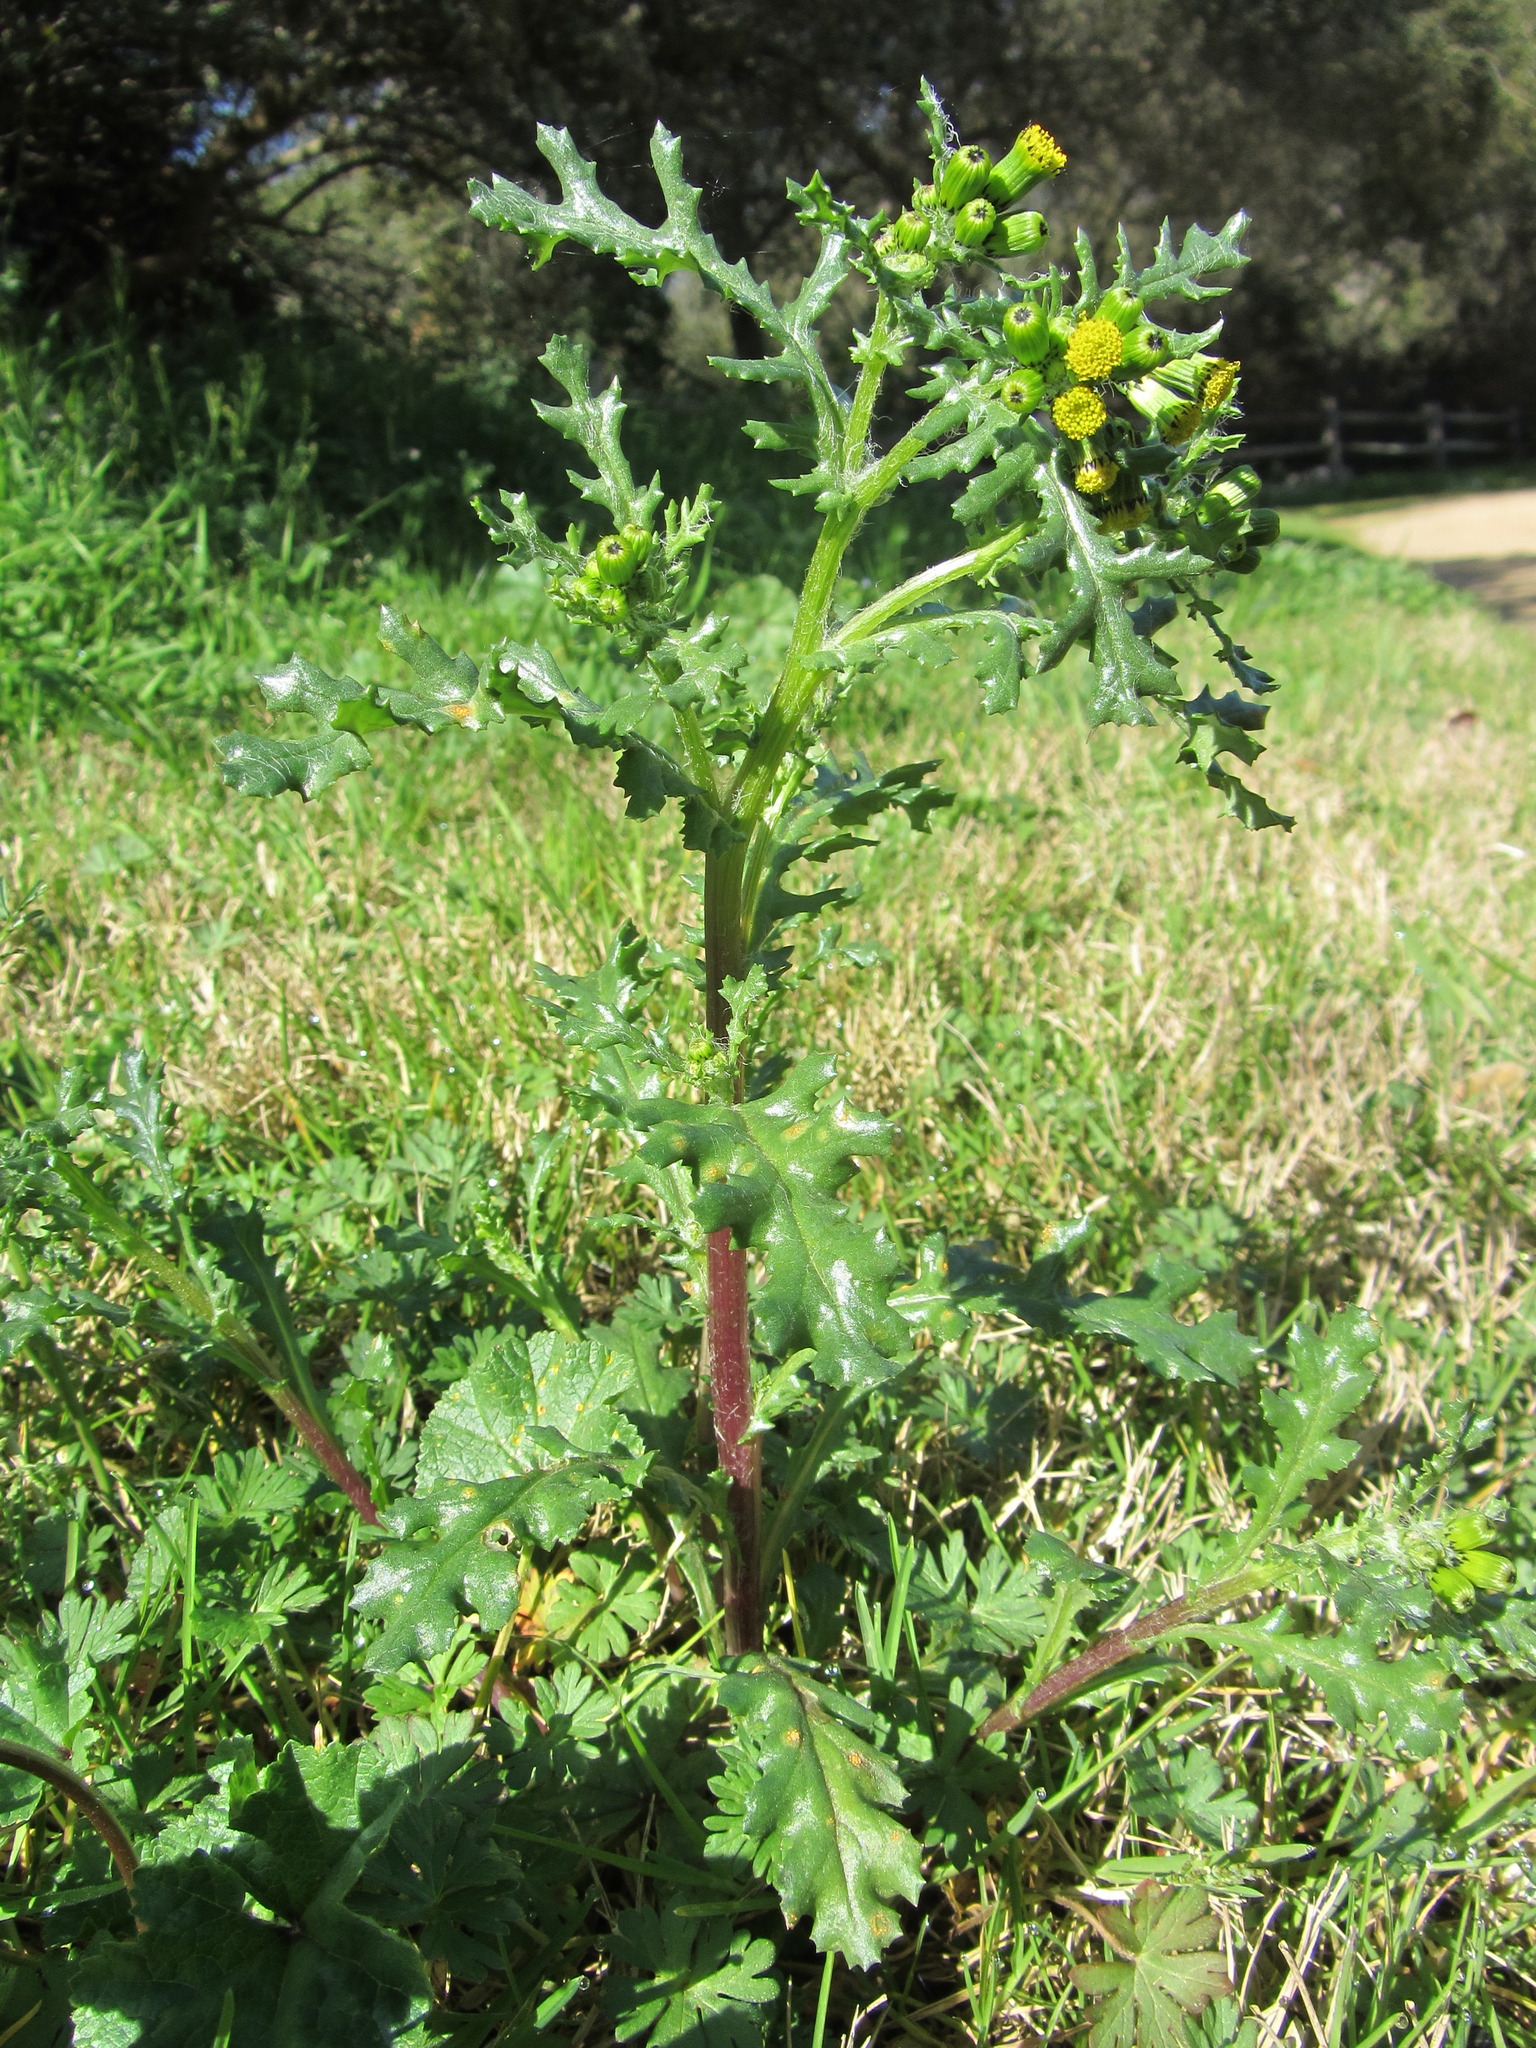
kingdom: Plantae
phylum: Tracheophyta
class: Magnoliopsida
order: Asterales
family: Asteraceae
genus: Senecio
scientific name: Senecio vulgaris
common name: Old-man-in-the-spring
